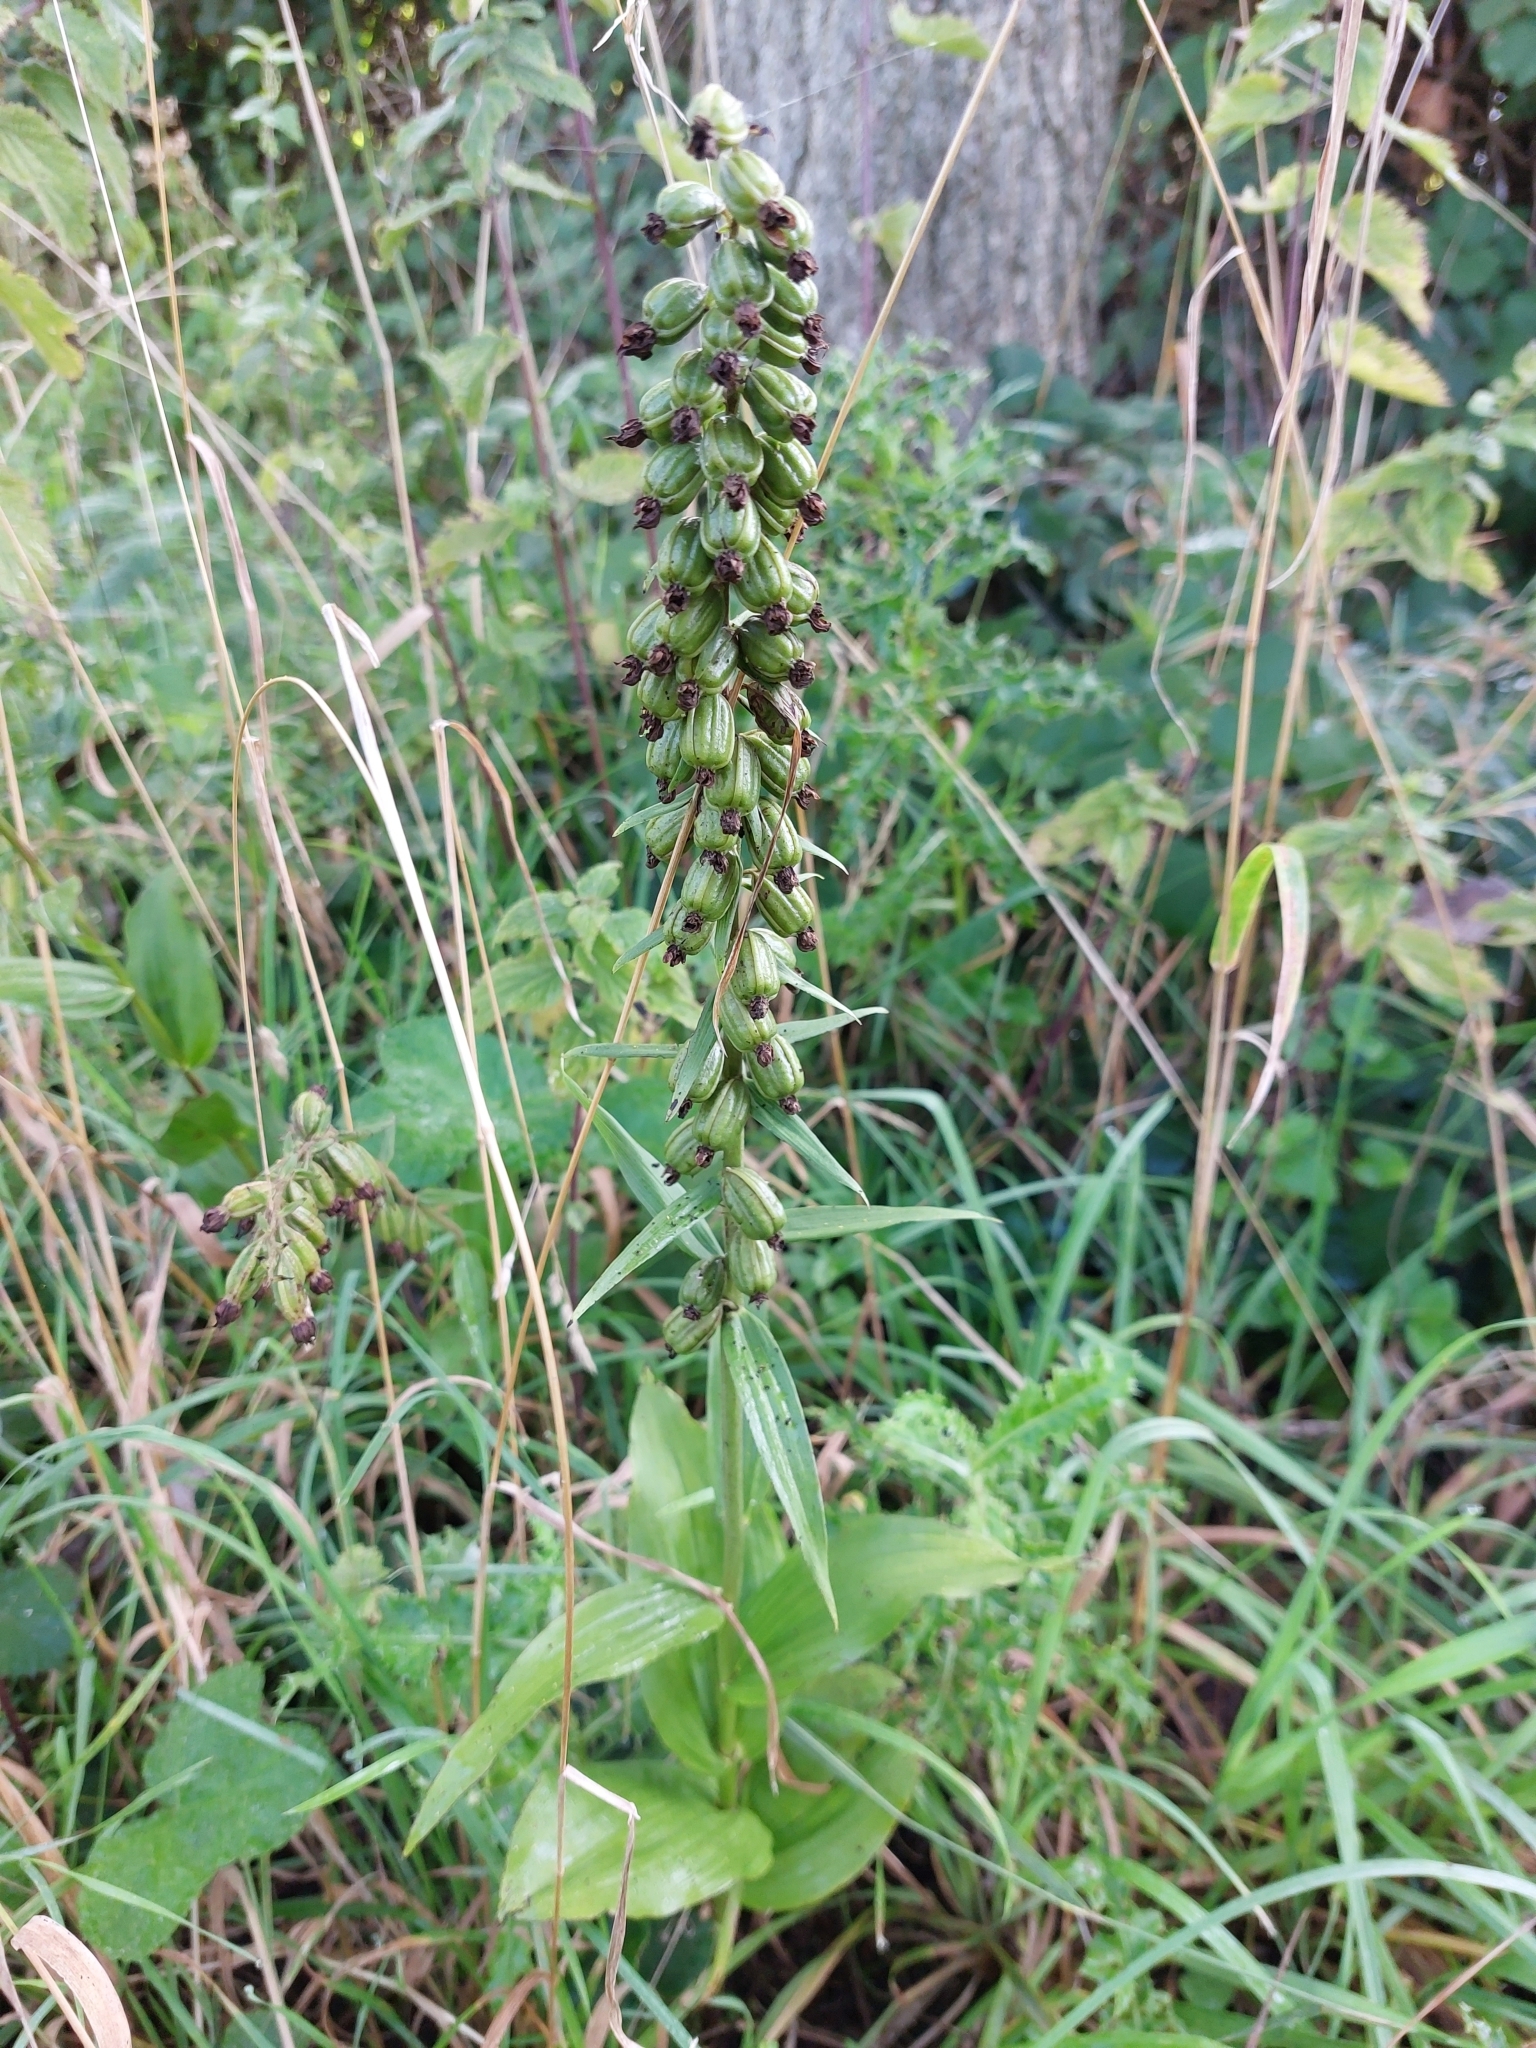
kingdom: Plantae
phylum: Tracheophyta
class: Liliopsida
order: Asparagales
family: Orchidaceae
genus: Epipactis
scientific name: Epipactis helleborine
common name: Broad-leaved helleborine
